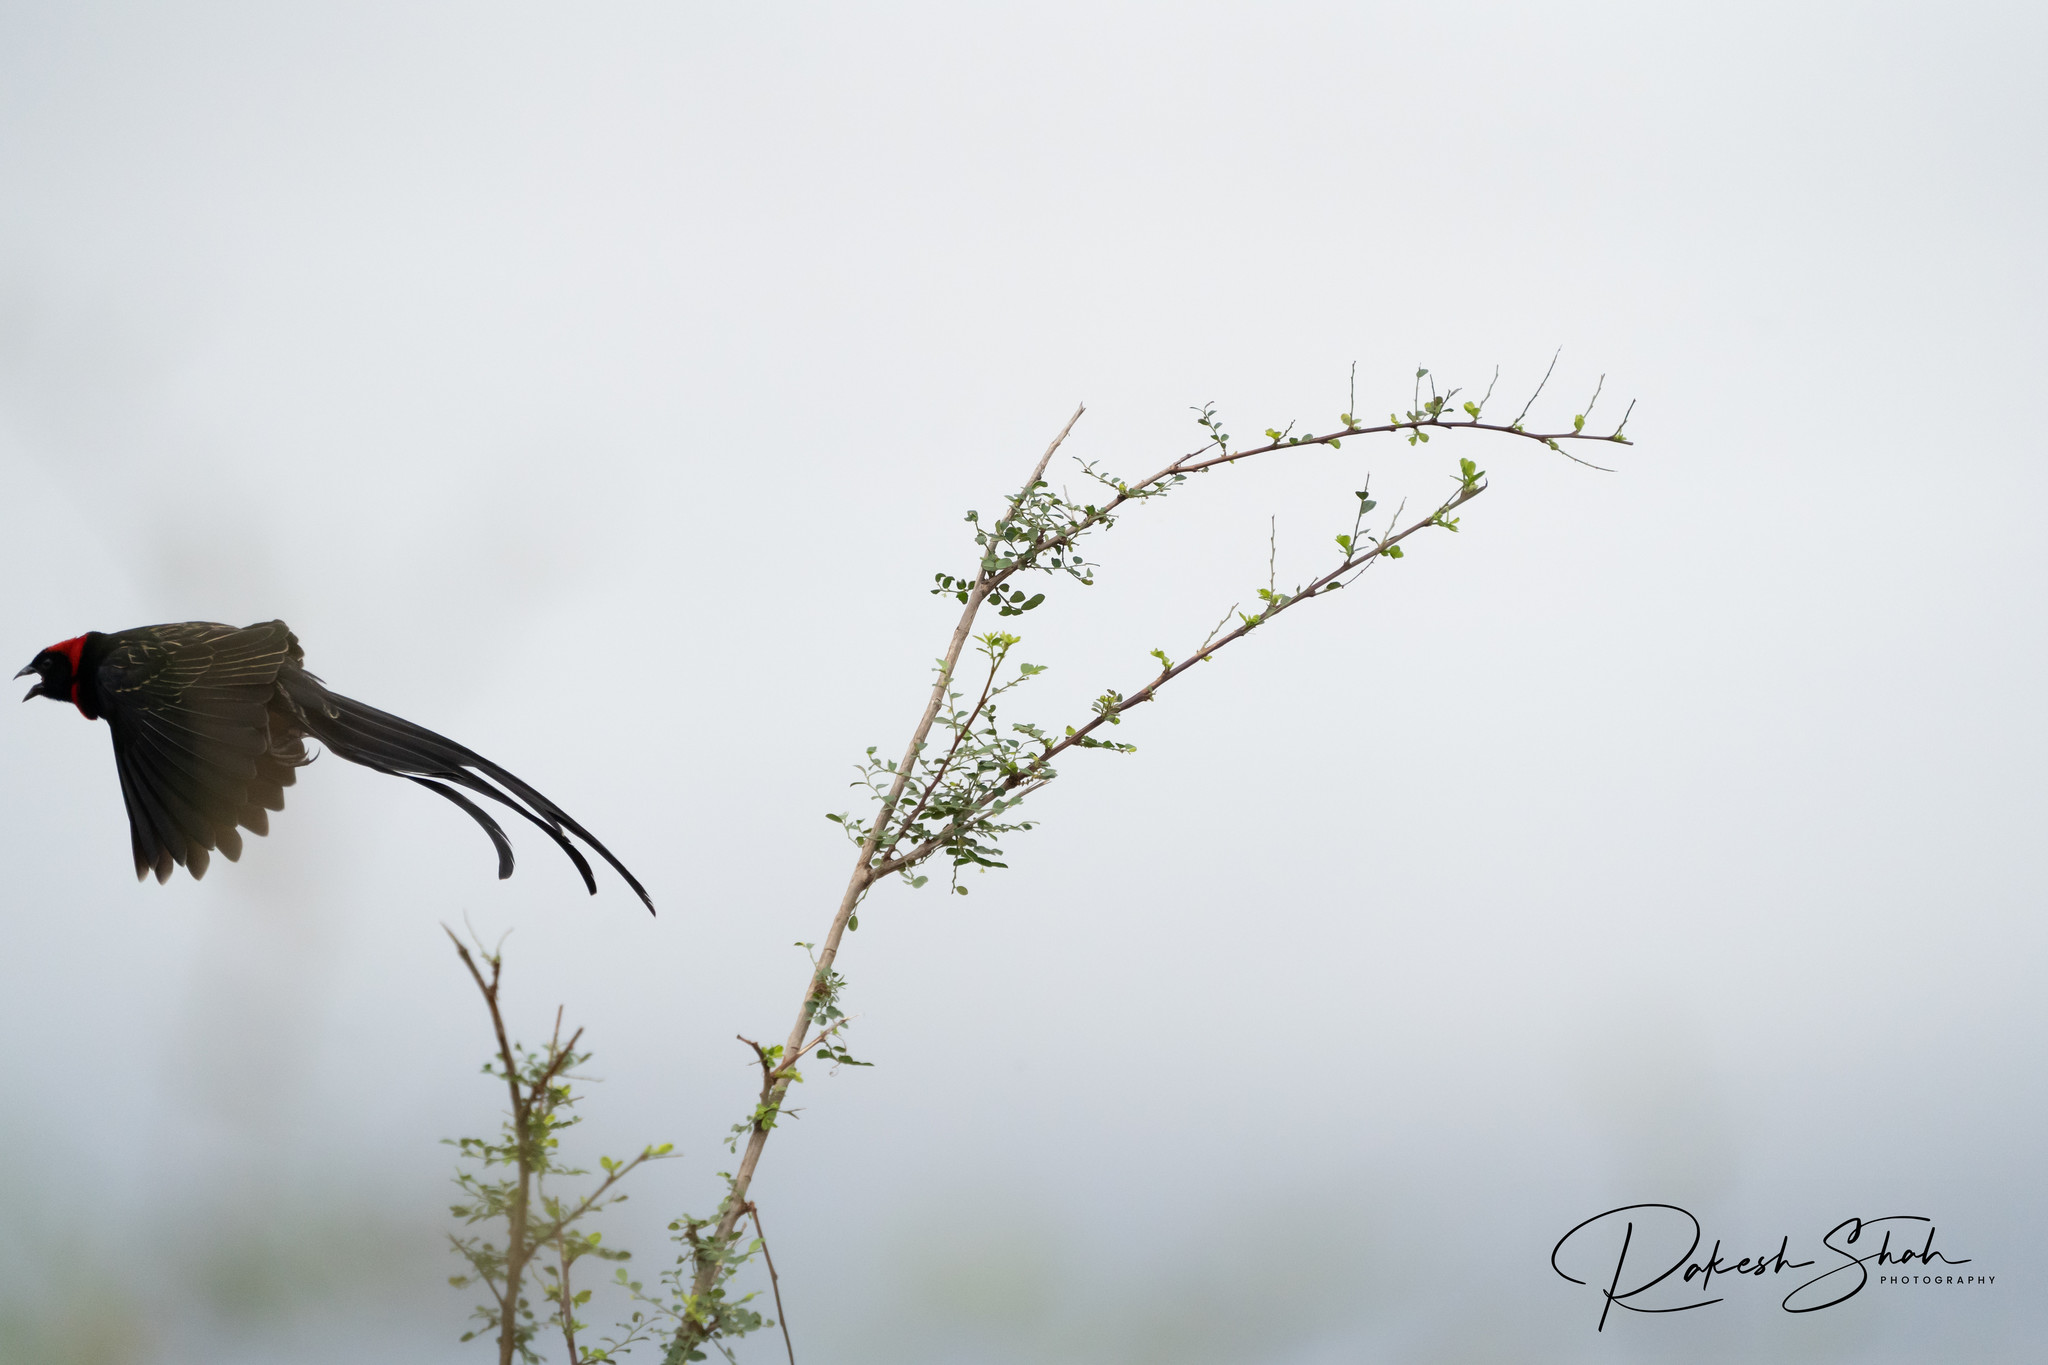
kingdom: Animalia
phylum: Chordata
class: Aves
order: Passeriformes
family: Ploceidae
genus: Euplectes
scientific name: Euplectes ardens
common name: Red-collared widowbird
